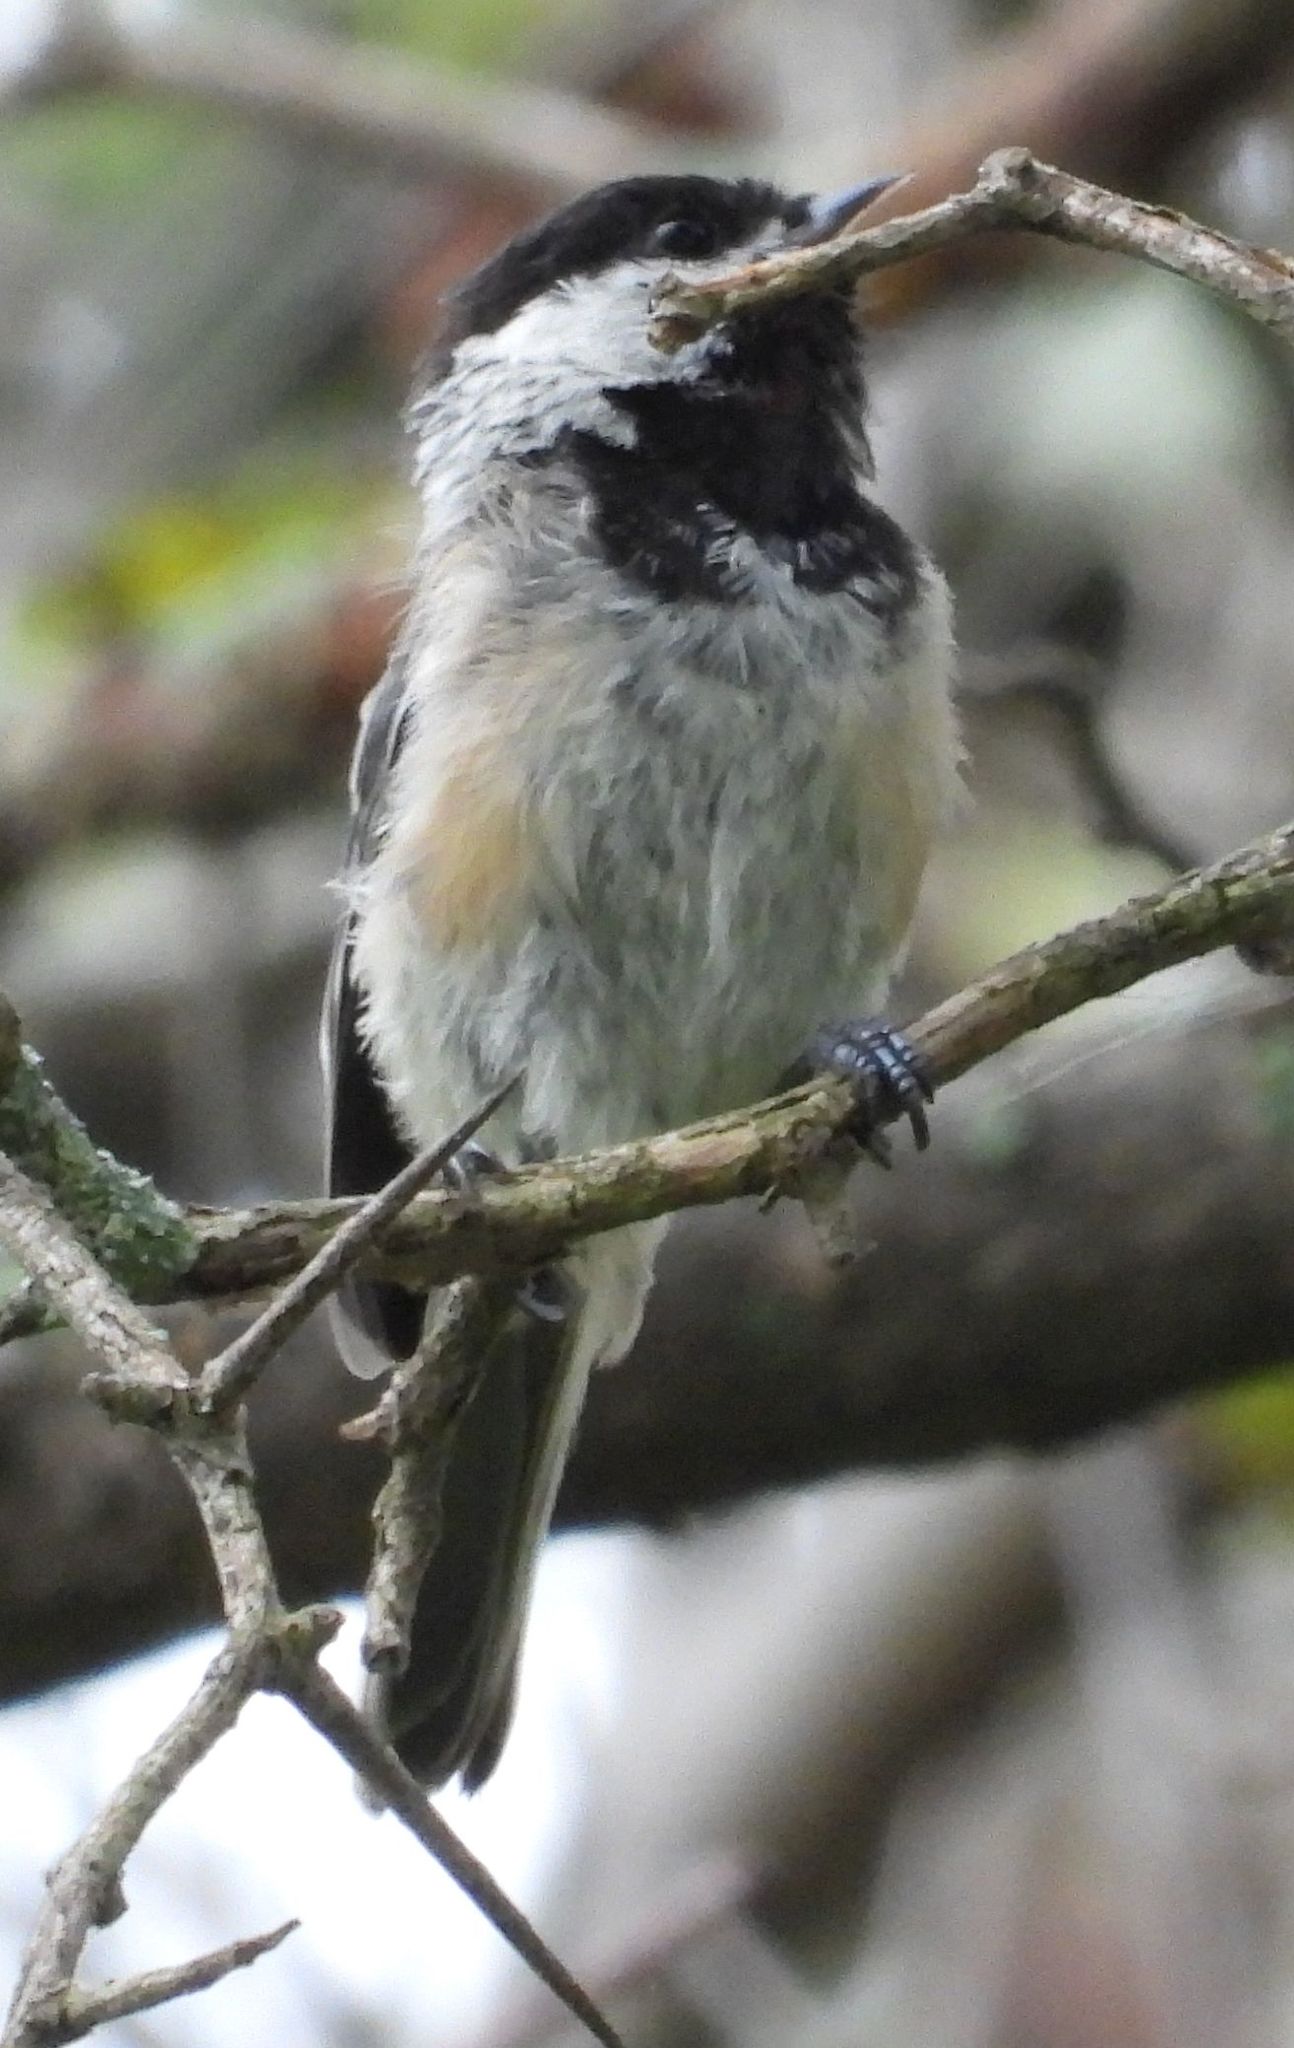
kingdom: Animalia
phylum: Chordata
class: Aves
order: Passeriformes
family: Paridae
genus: Poecile
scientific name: Poecile atricapillus
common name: Black-capped chickadee
